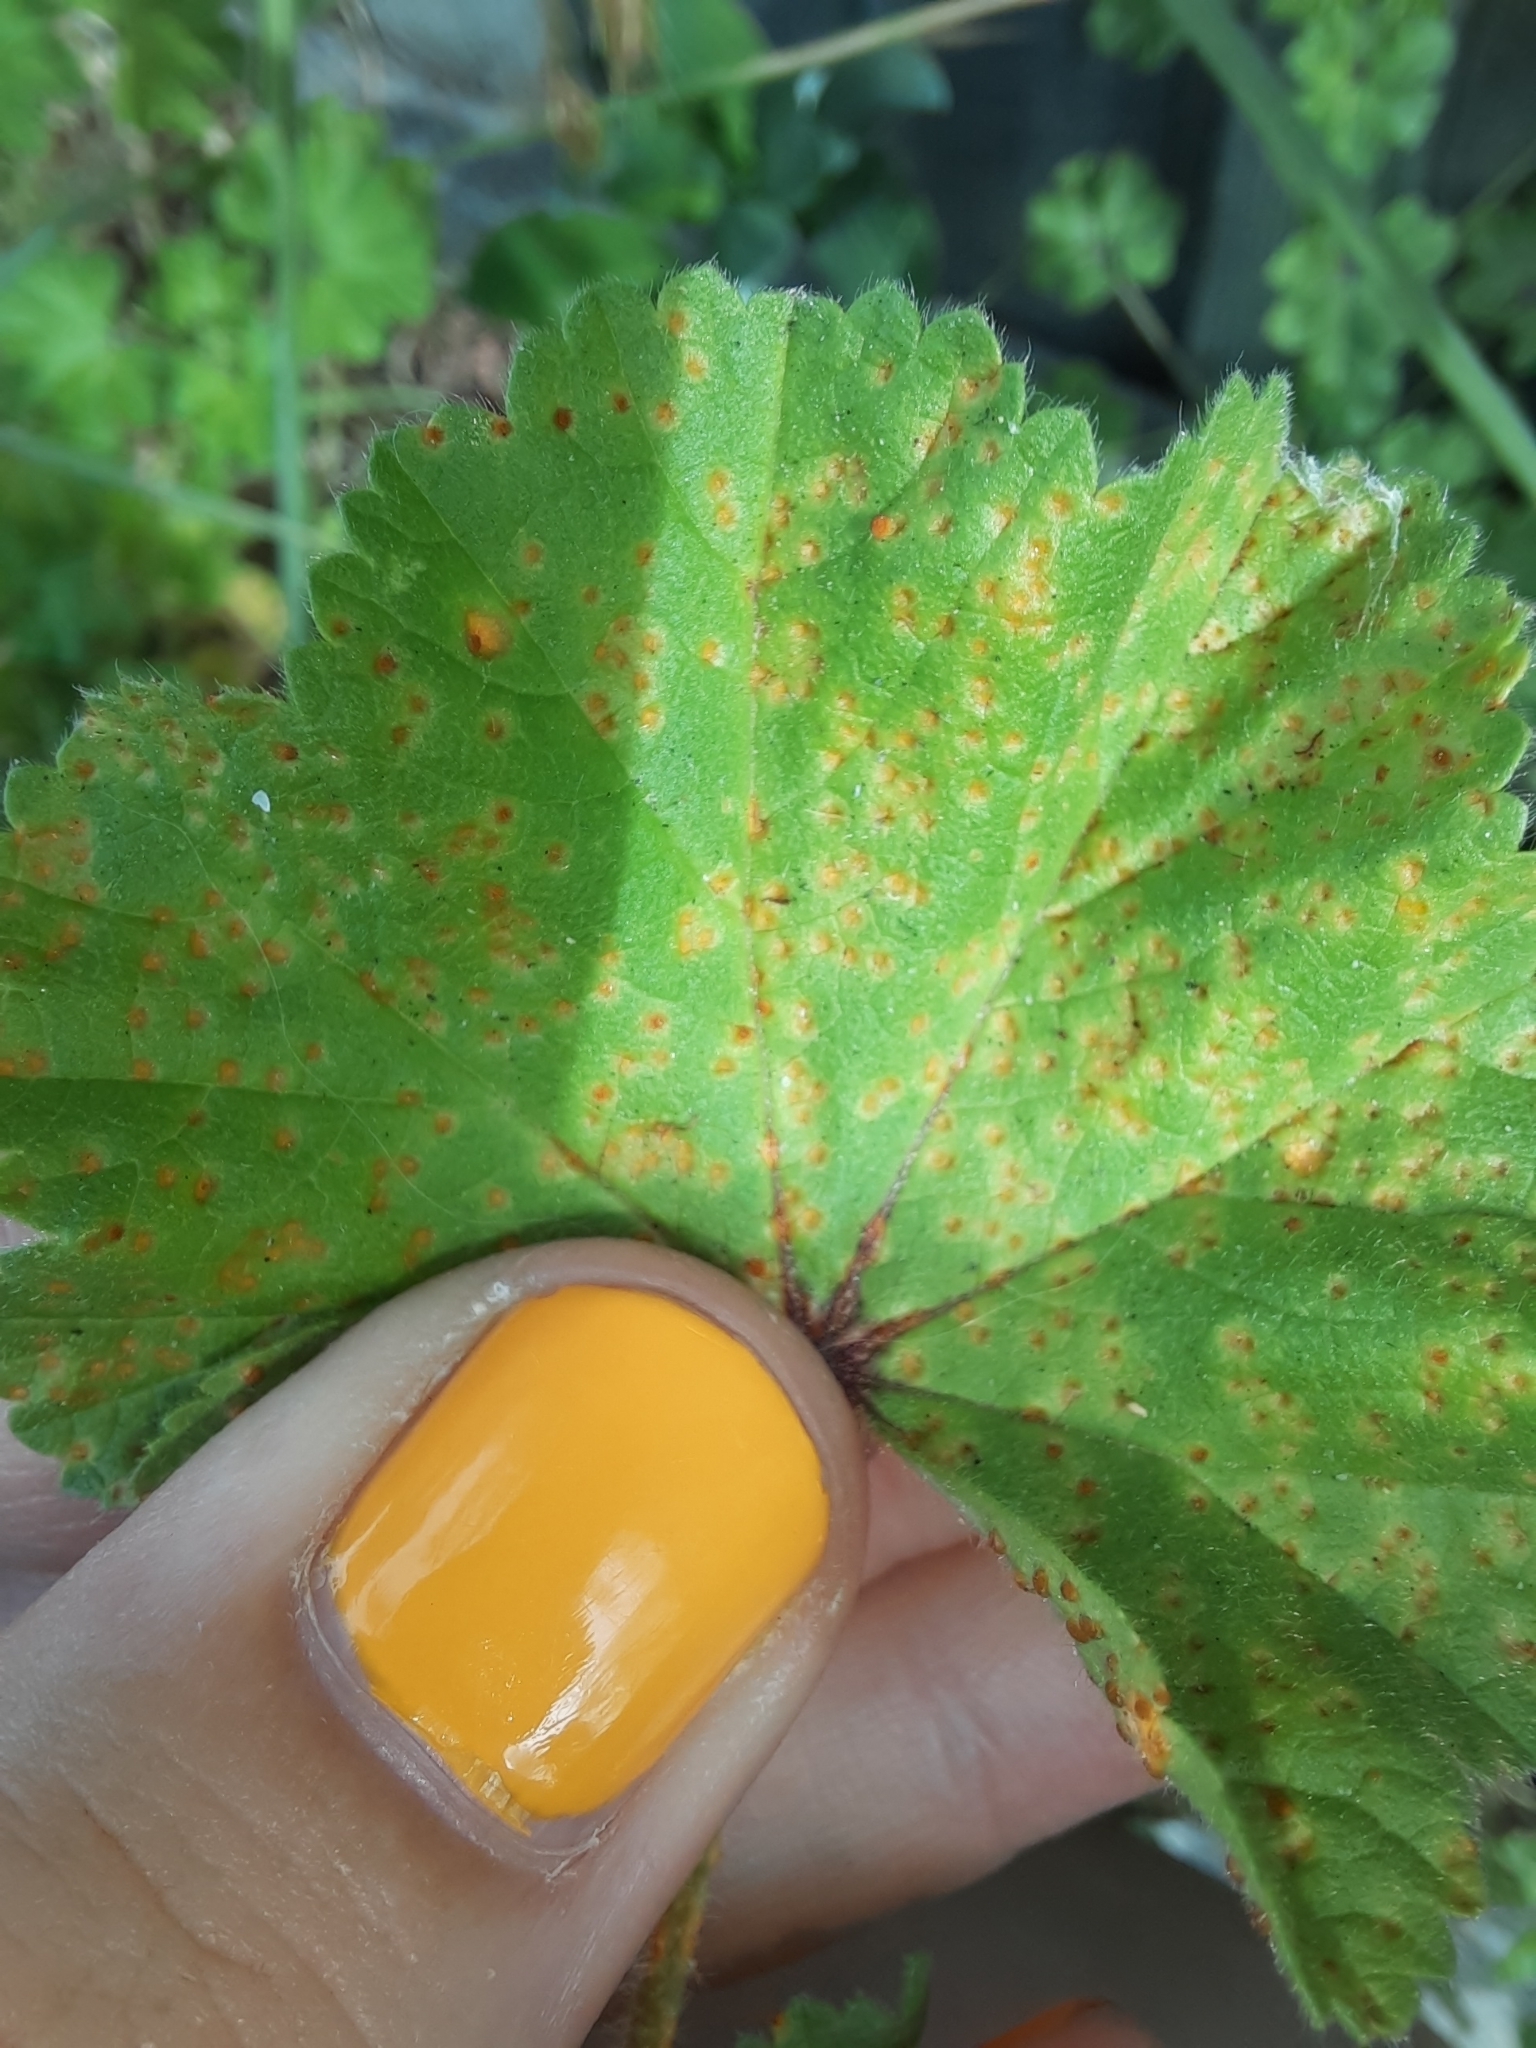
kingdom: Fungi
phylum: Basidiomycota
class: Pucciniomycetes
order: Pucciniales
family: Pucciniaceae
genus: Puccinia
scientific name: Puccinia malvacearum
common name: Hollyhock rust
